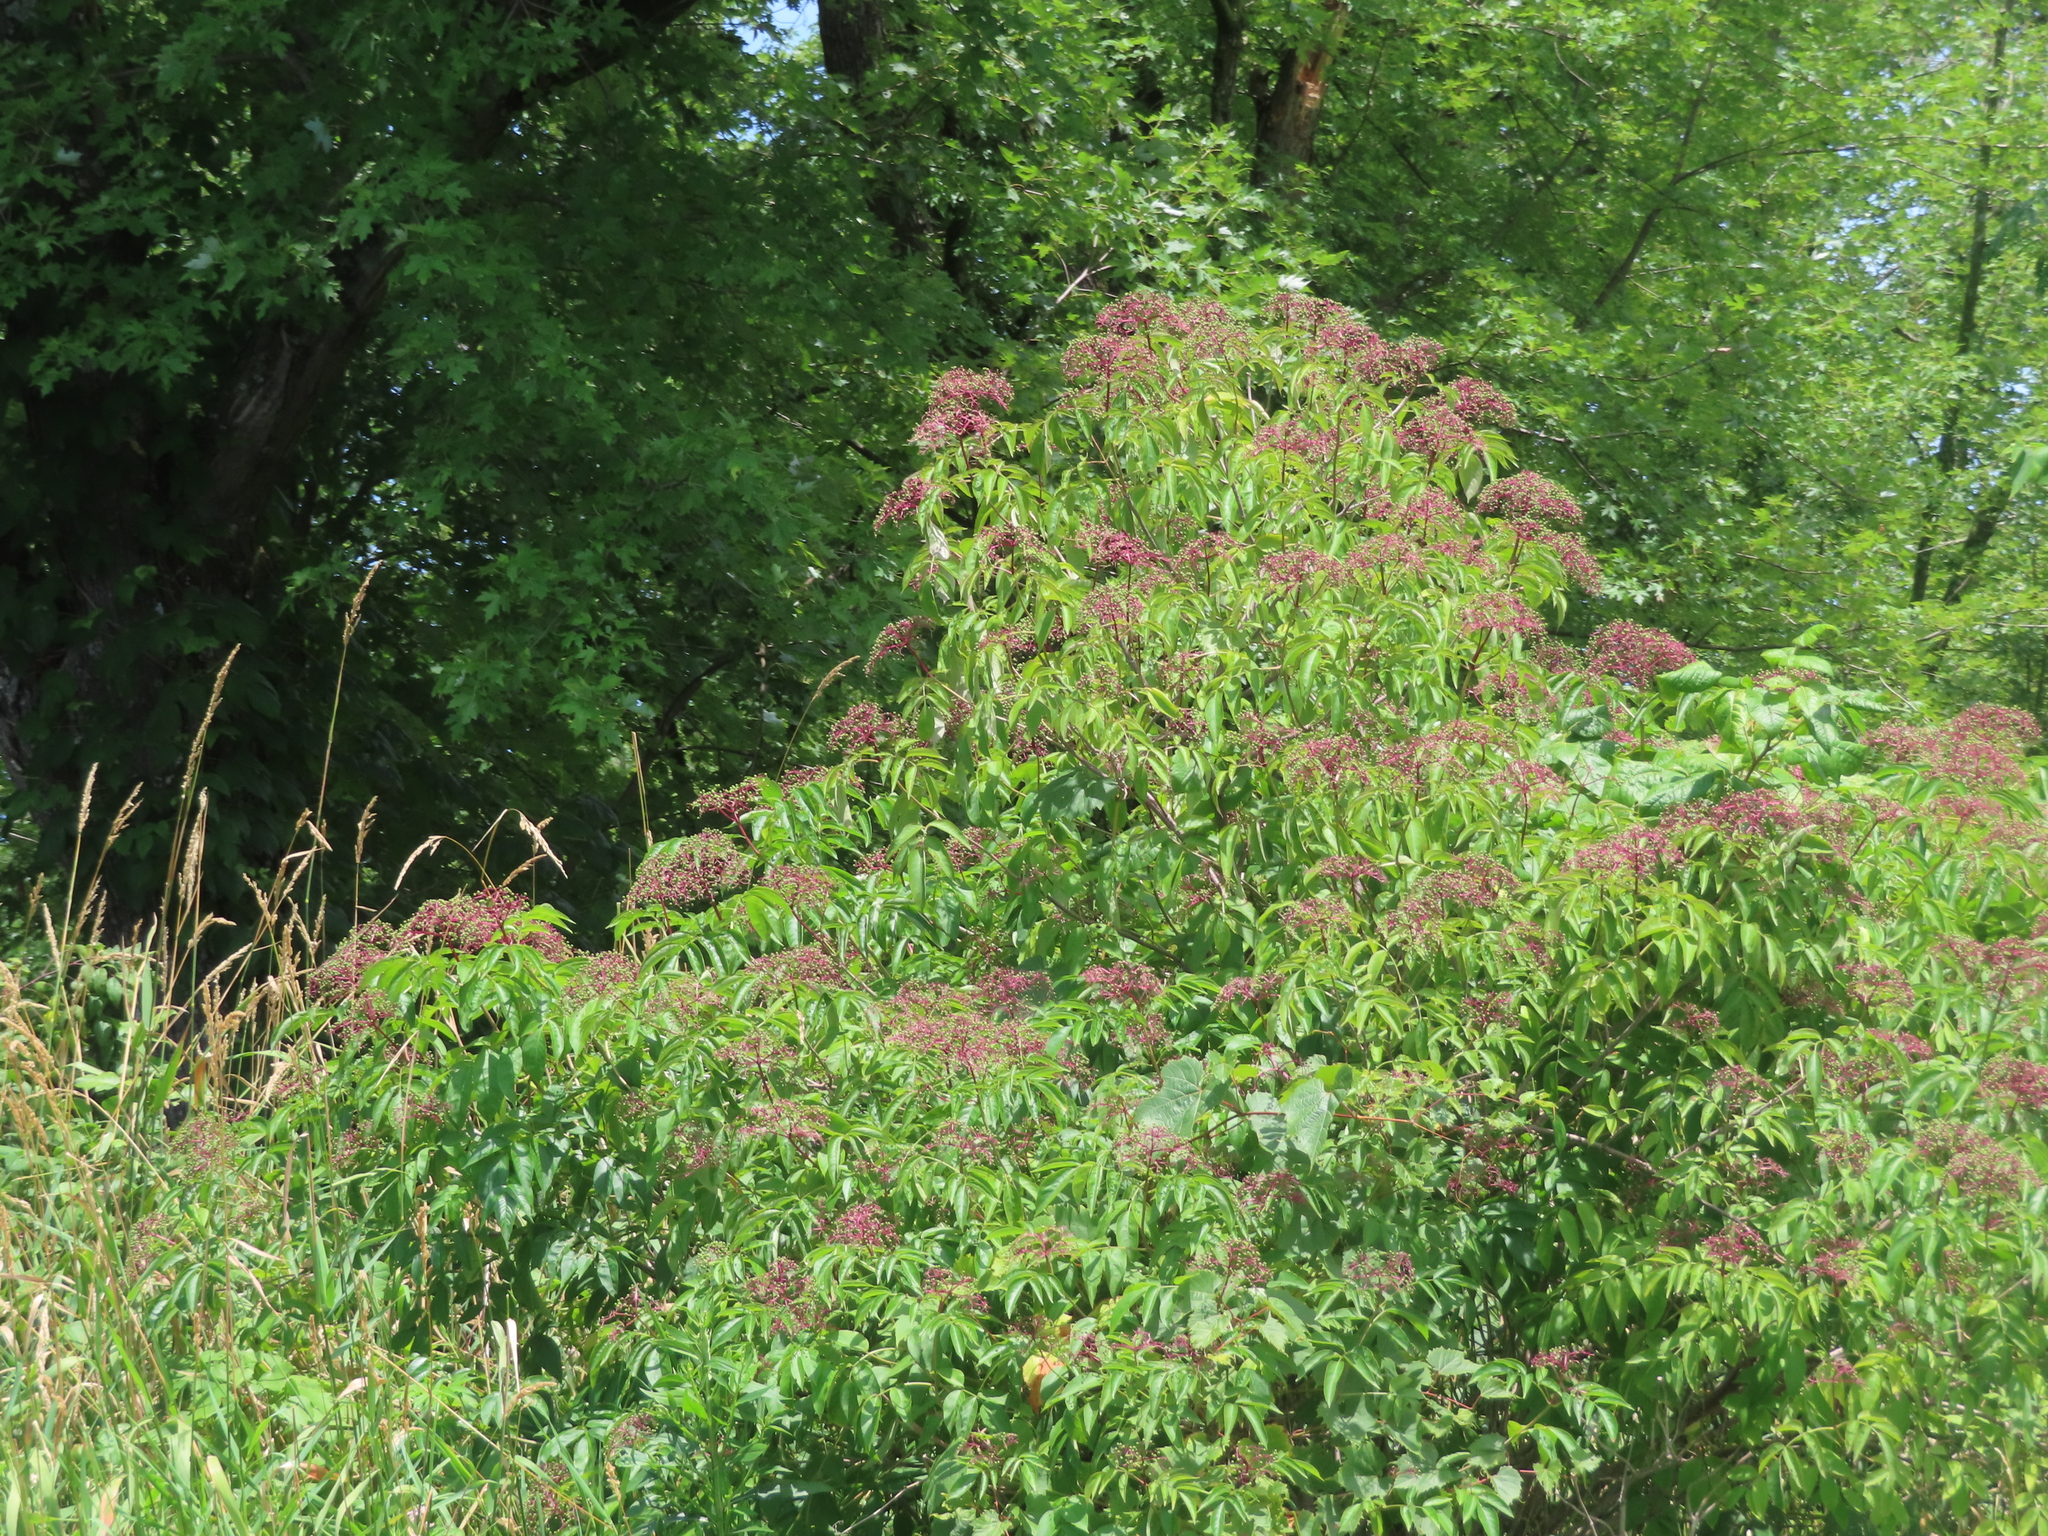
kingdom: Plantae
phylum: Tracheophyta
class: Magnoliopsida
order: Dipsacales
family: Viburnaceae
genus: Sambucus
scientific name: Sambucus canadensis
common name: American elder
